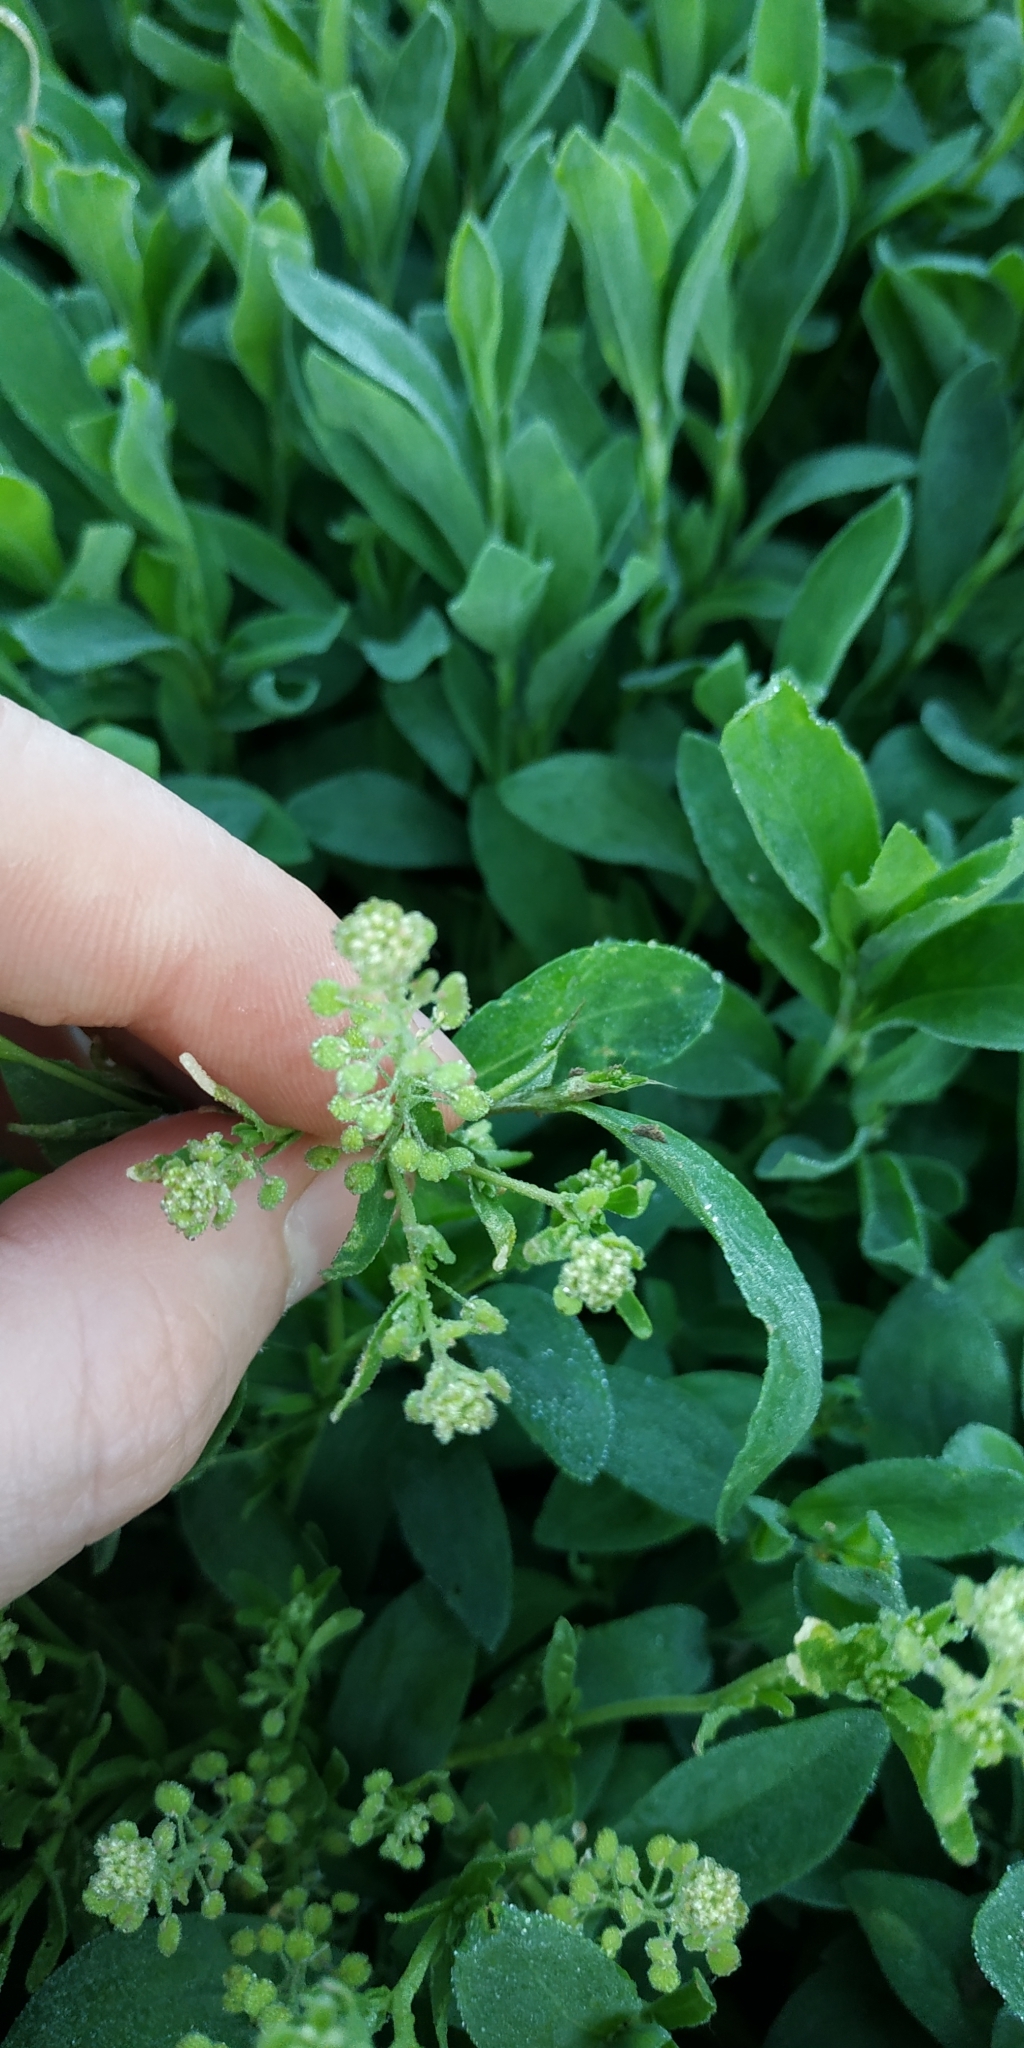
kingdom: Plantae
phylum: Tracheophyta
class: Magnoliopsida
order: Brassicales
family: Brassicaceae
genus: Lepidium
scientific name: Lepidium densiflorum
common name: Miner's pepperwort
